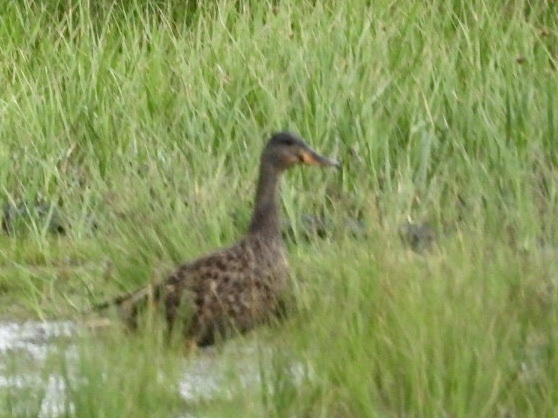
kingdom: Animalia
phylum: Chordata
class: Aves
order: Anseriformes
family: Anatidae
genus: Spatula
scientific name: Spatula clypeata
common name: Northern shoveler
